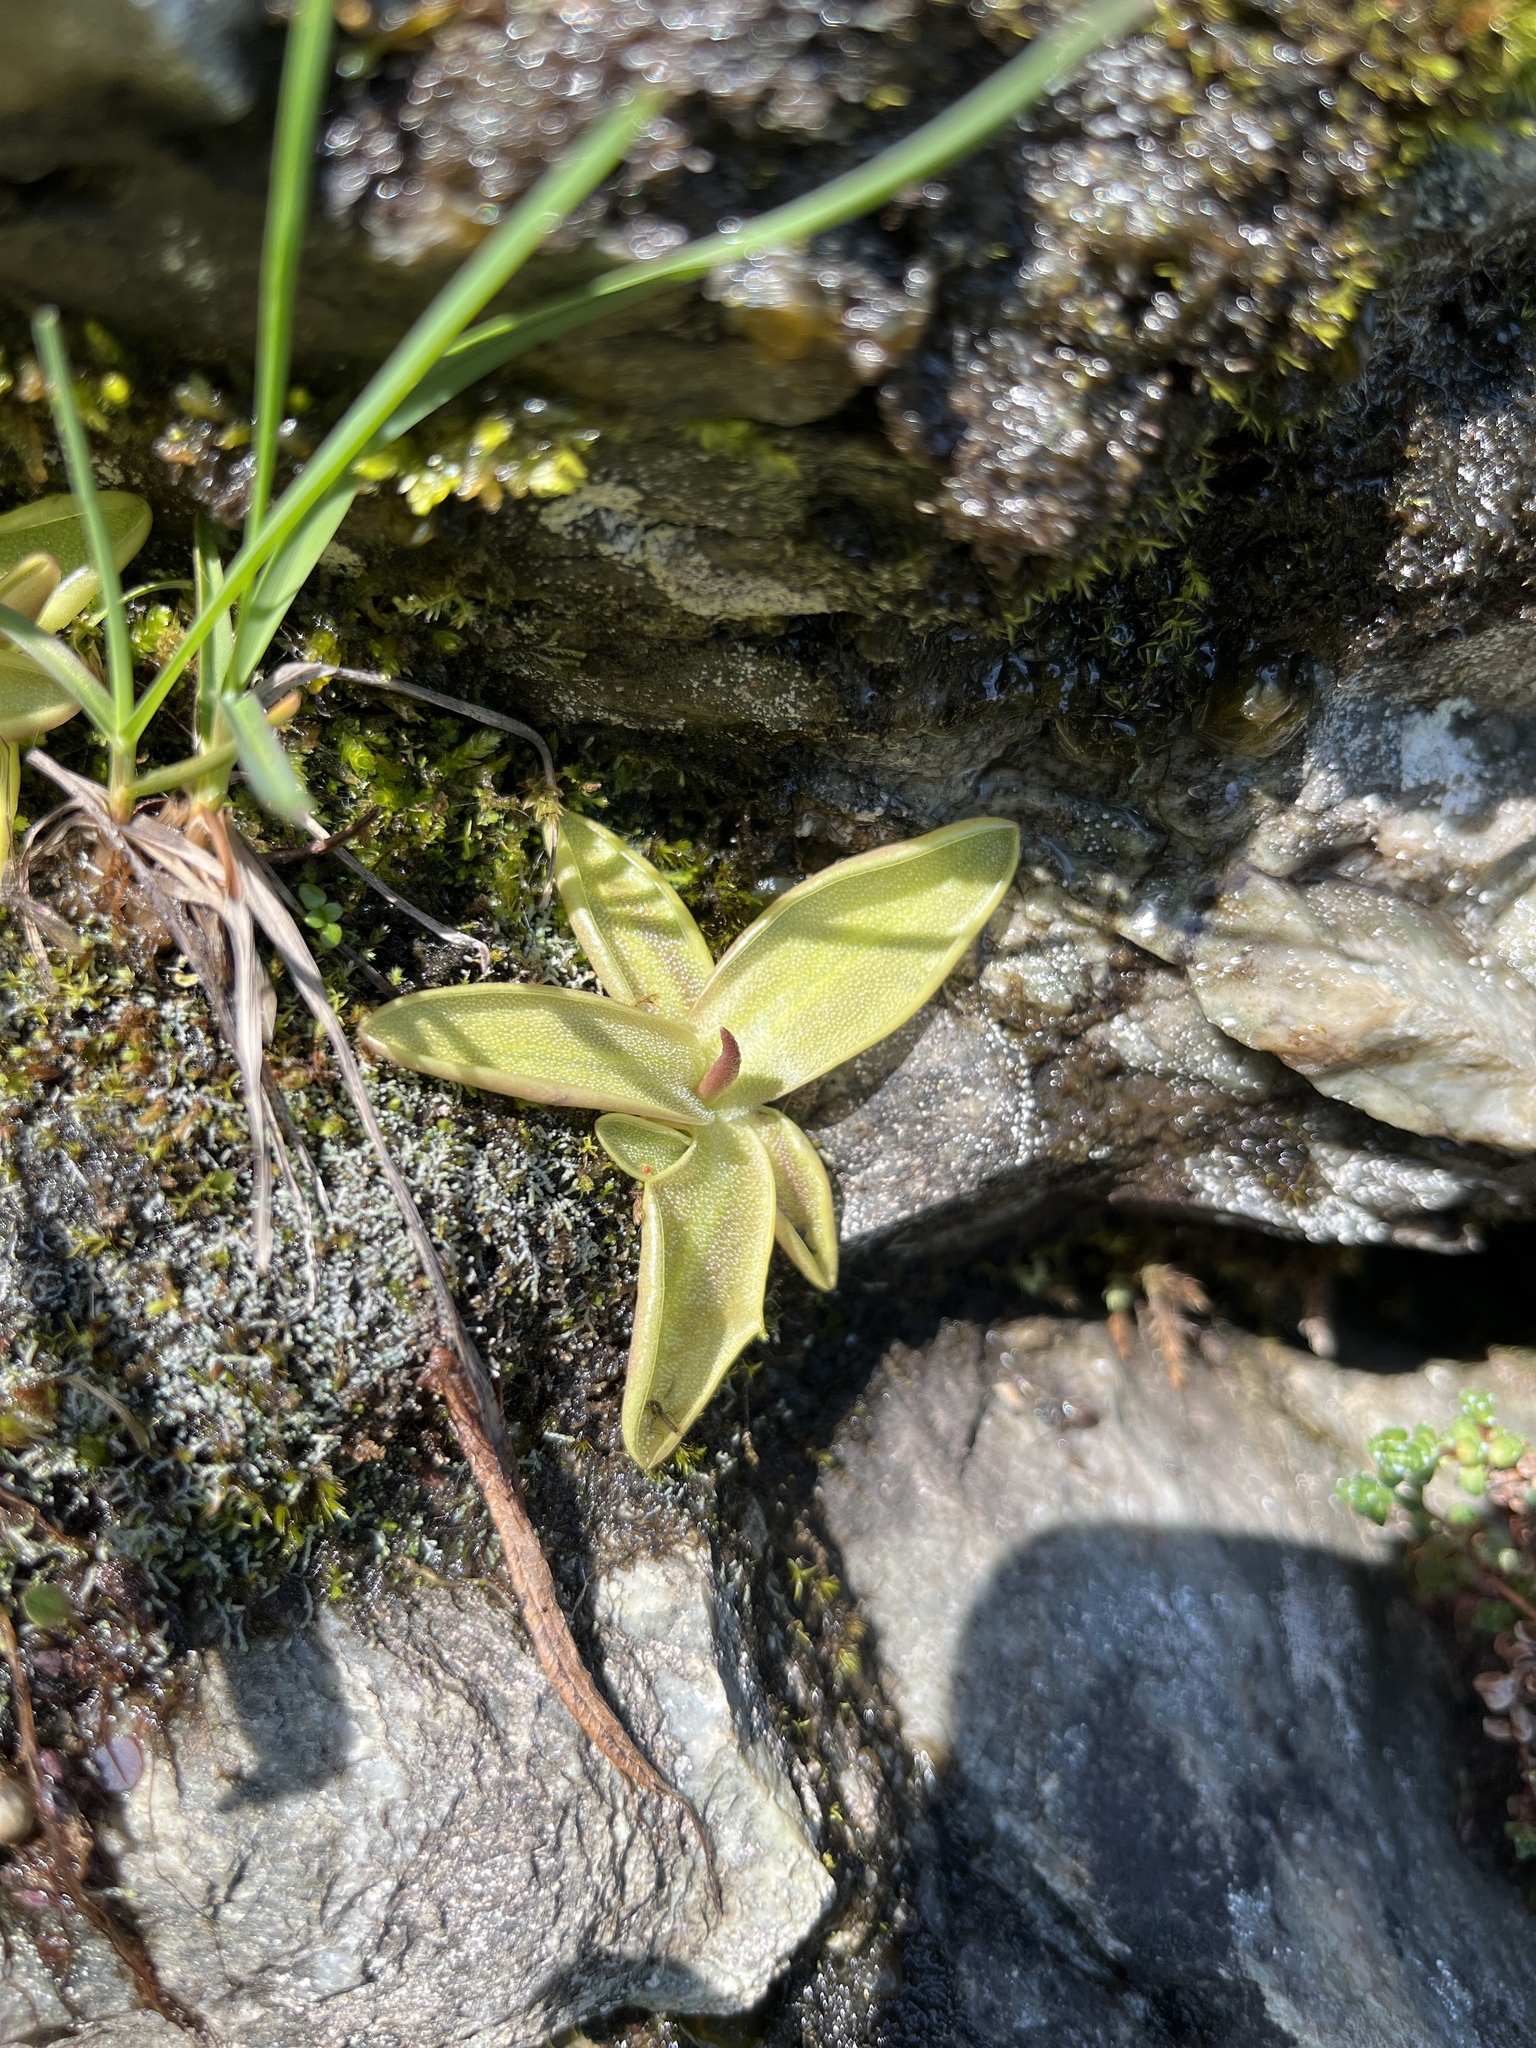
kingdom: Plantae
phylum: Tracheophyta
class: Magnoliopsida
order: Lamiales
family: Lentibulariaceae
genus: Pinguicula
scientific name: Pinguicula vulgaris
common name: Common butterwort
